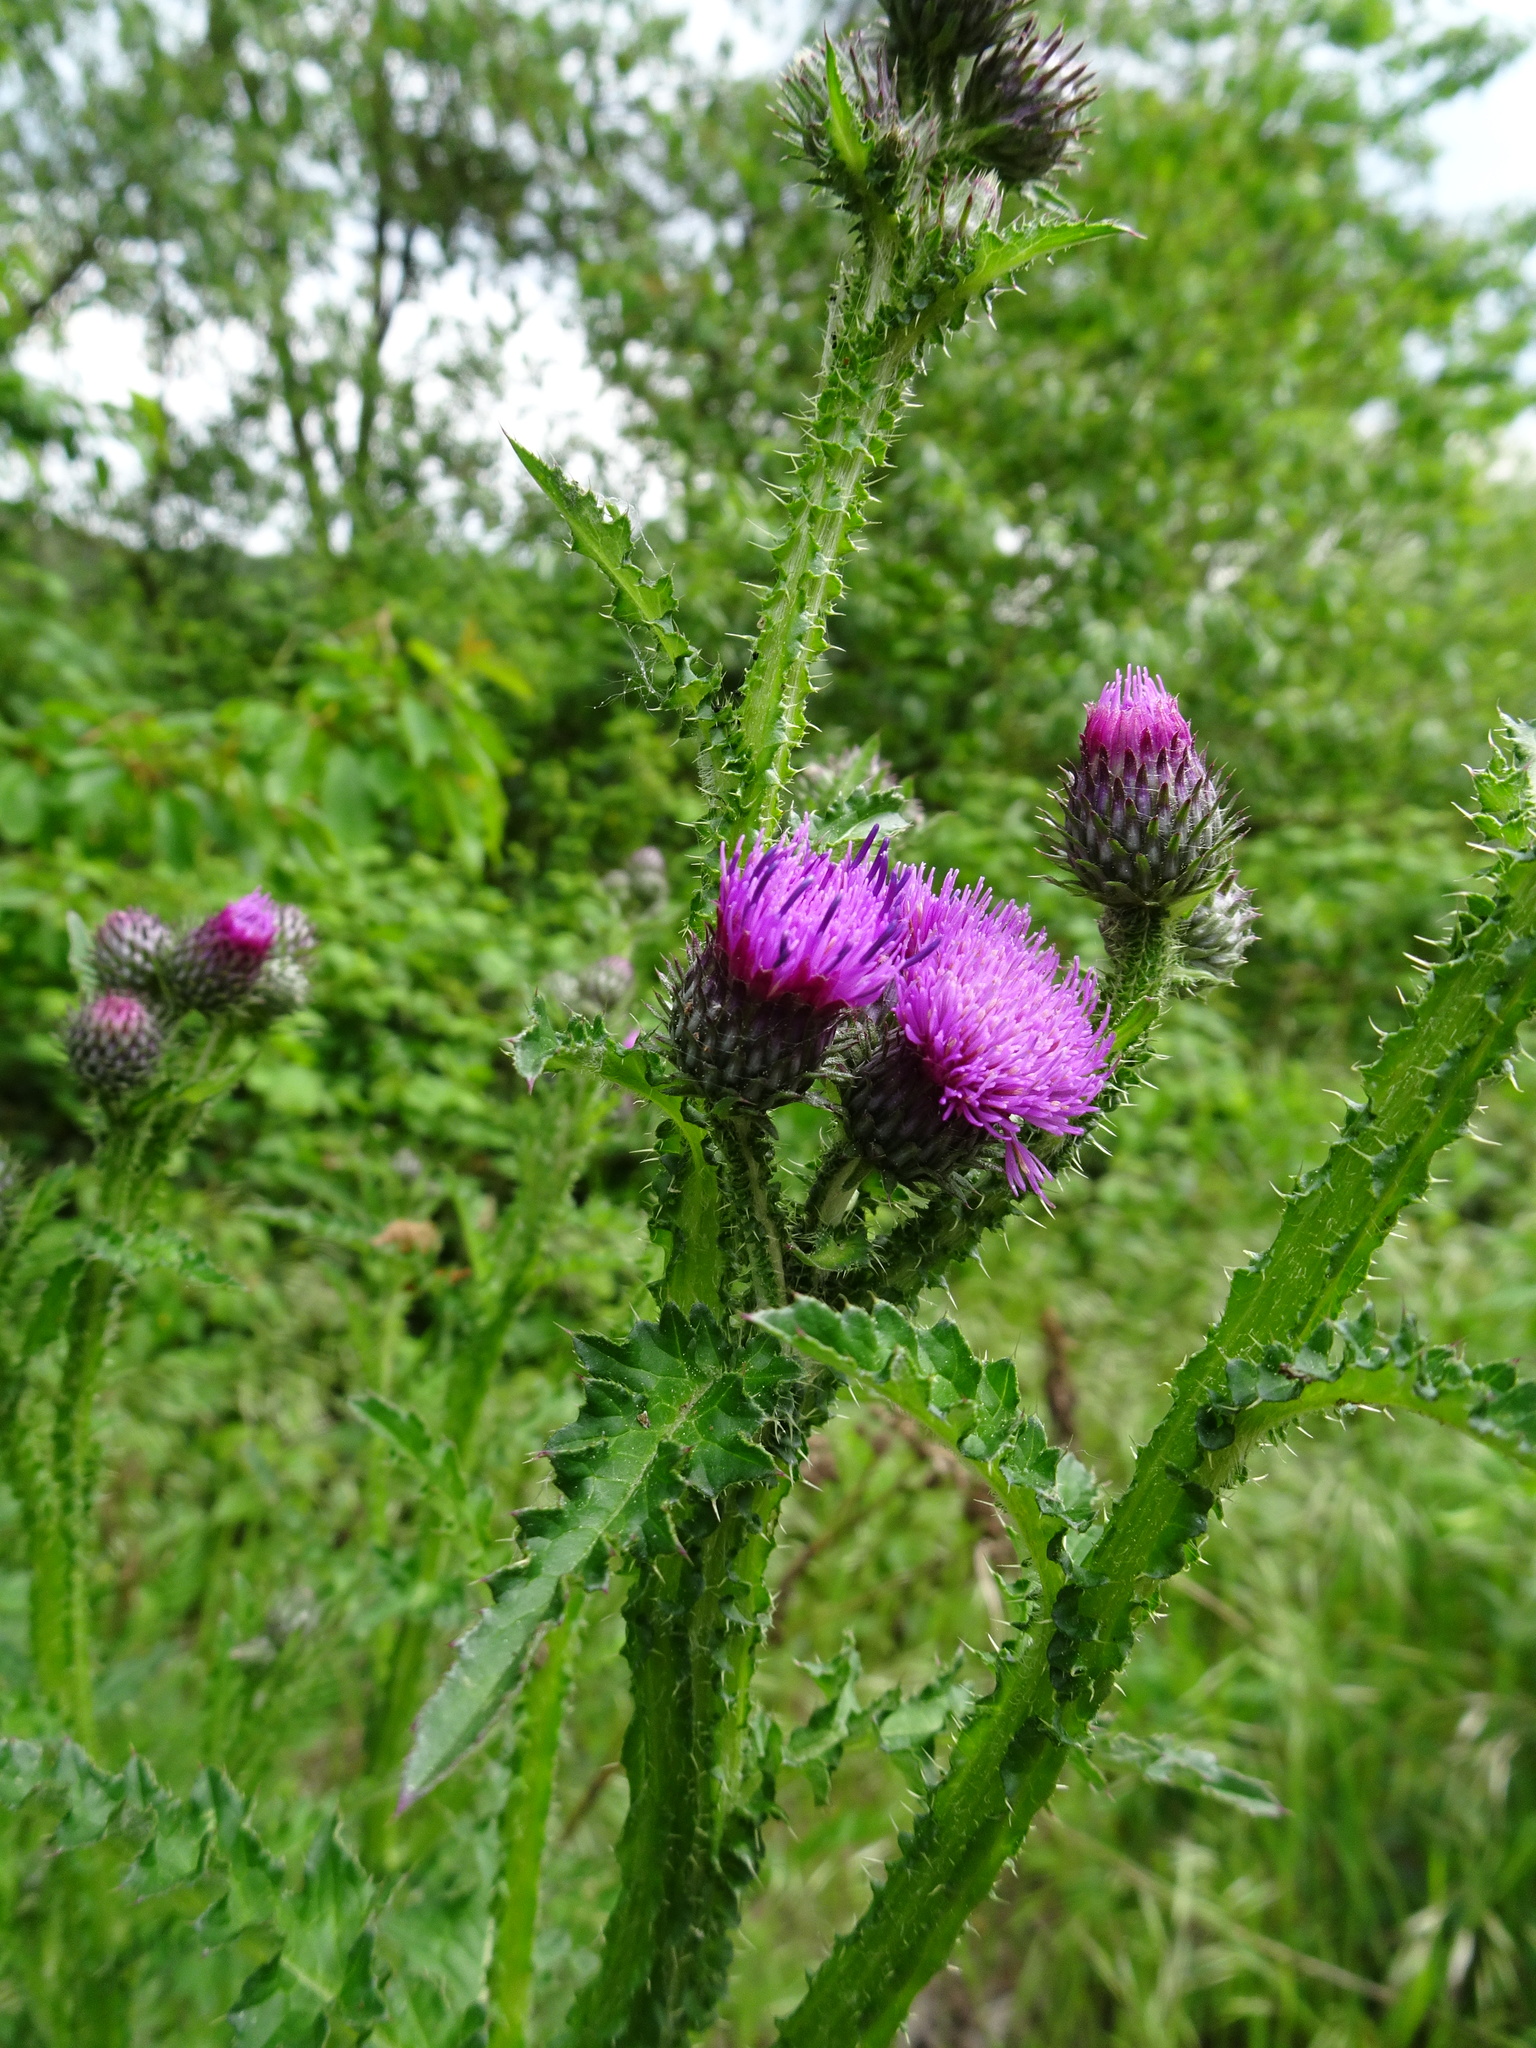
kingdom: Plantae
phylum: Tracheophyta
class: Magnoliopsida
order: Asterales
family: Asteraceae
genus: Carduus
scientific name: Carduus crispus
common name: Welted thistle
